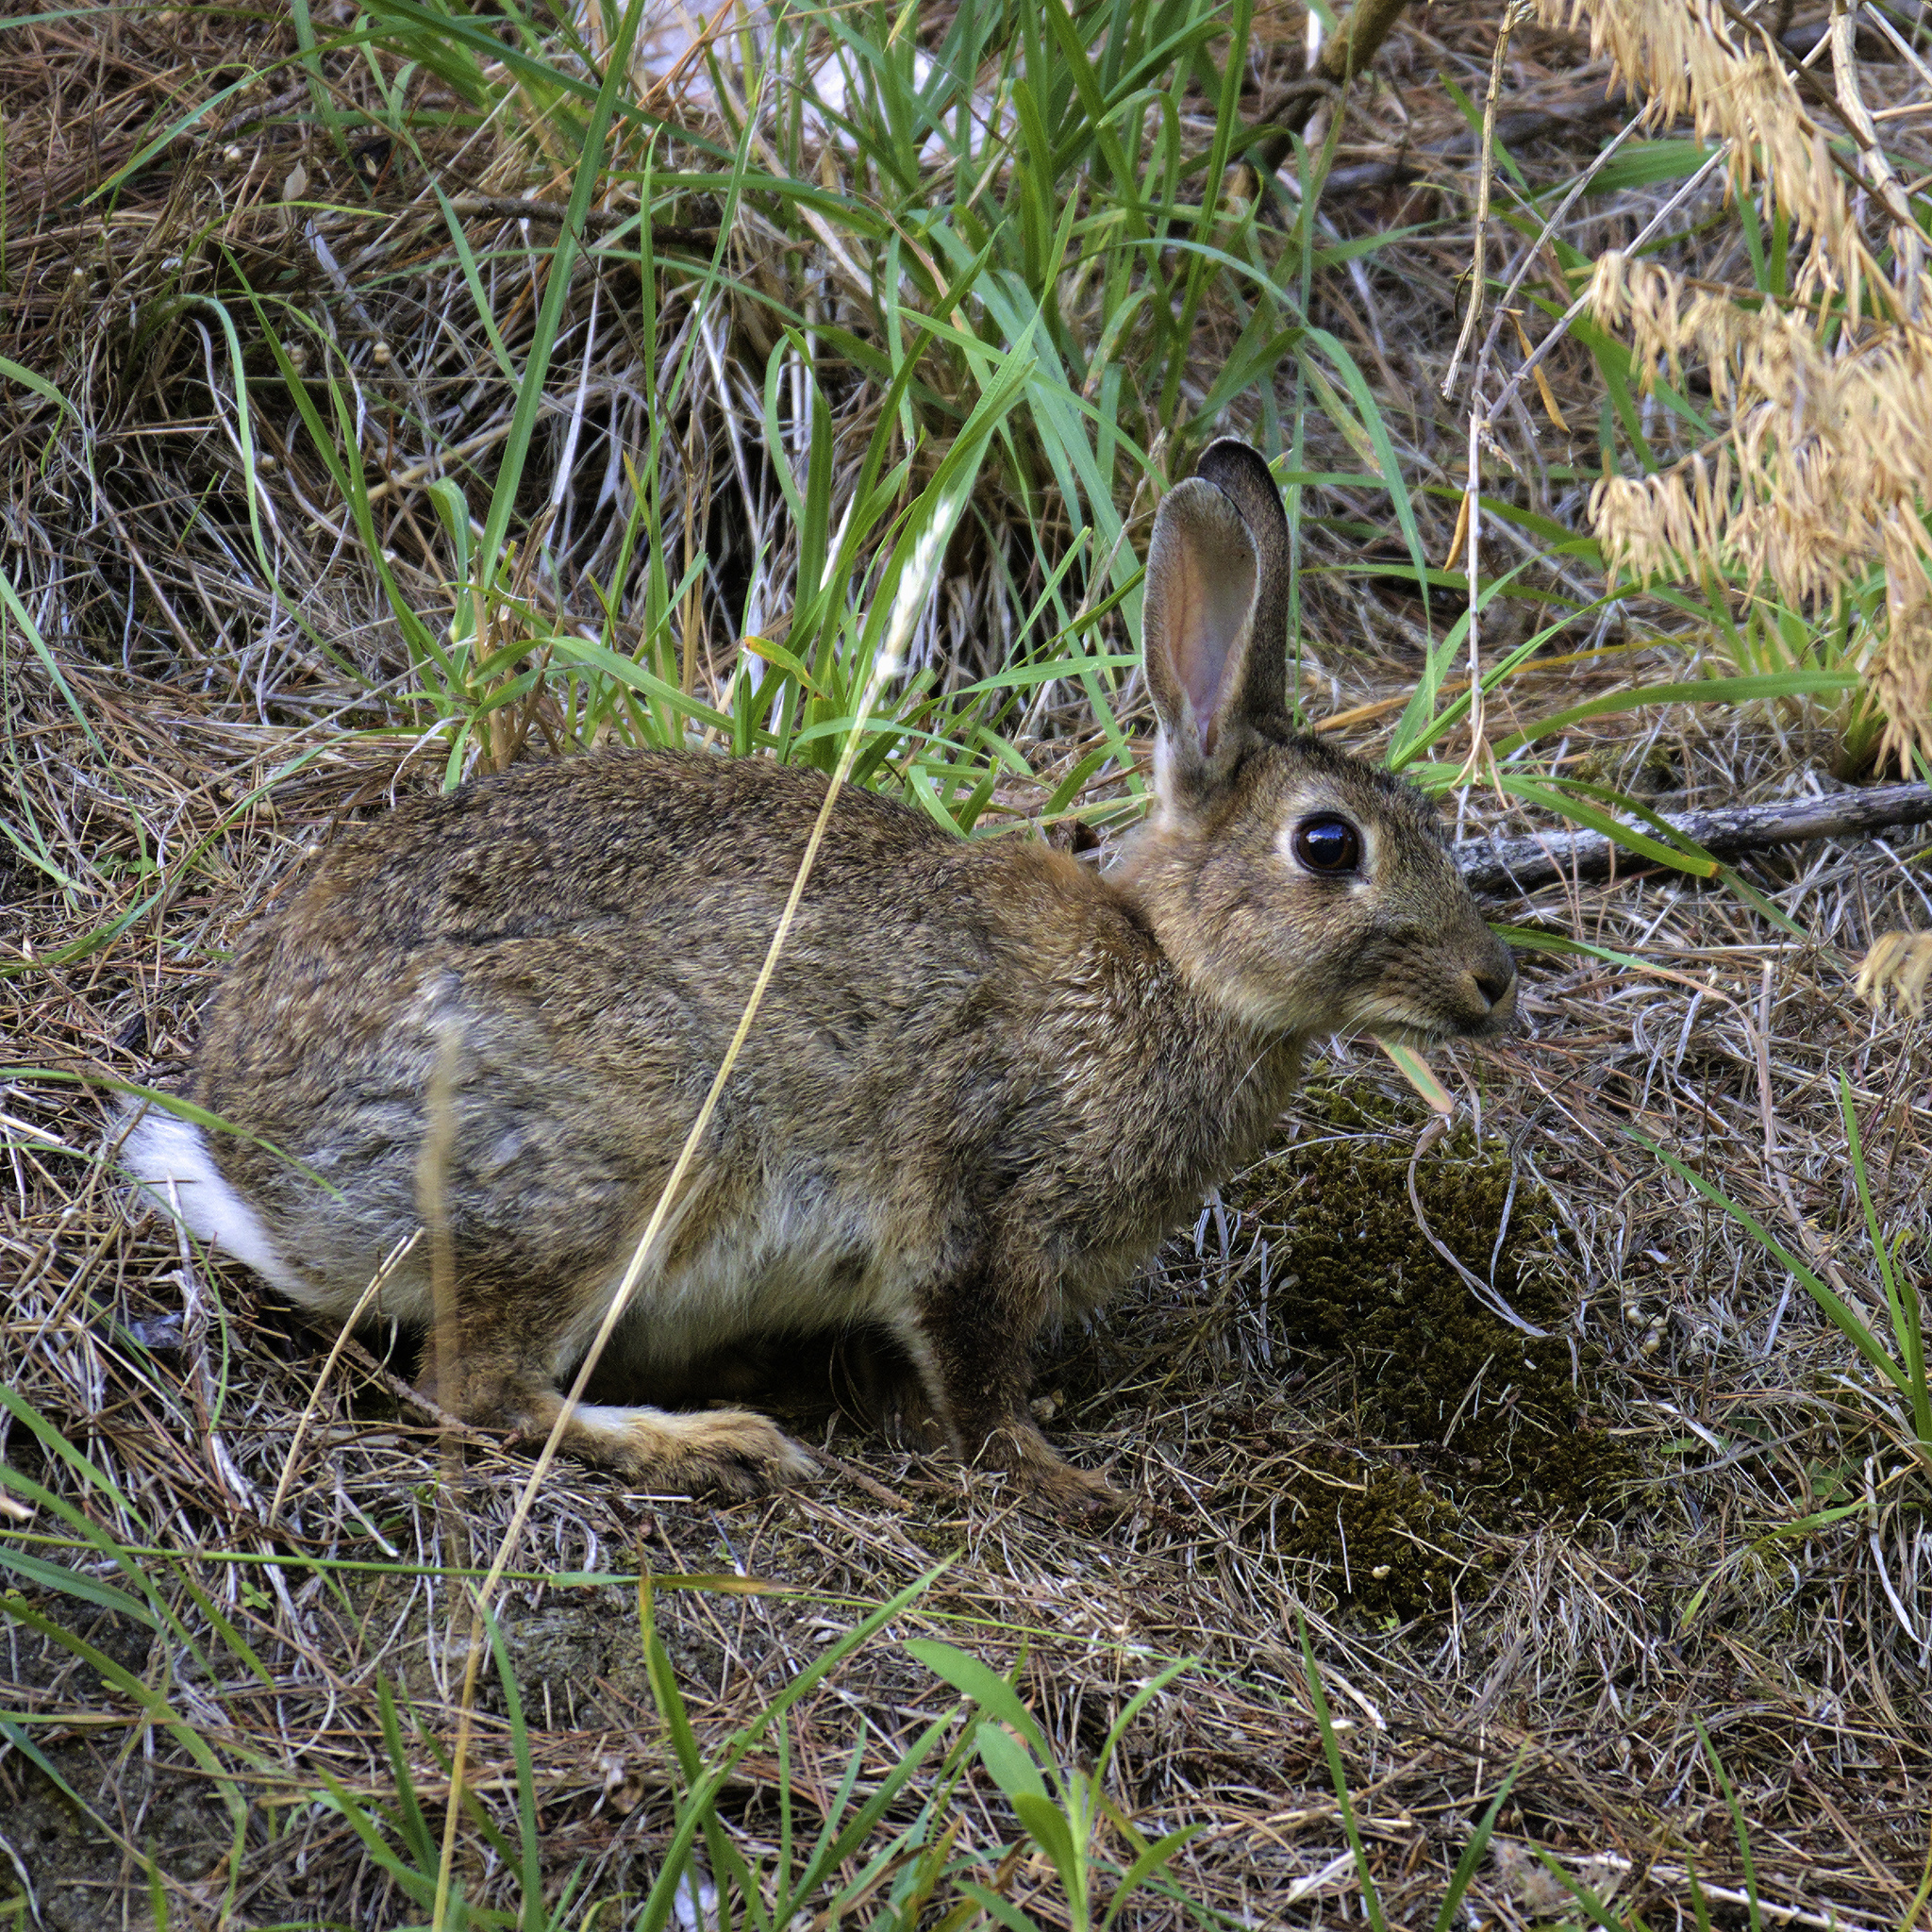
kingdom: Animalia
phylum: Chordata
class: Mammalia
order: Lagomorpha
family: Leporidae
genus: Oryctolagus
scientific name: Oryctolagus cuniculus
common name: European rabbit
